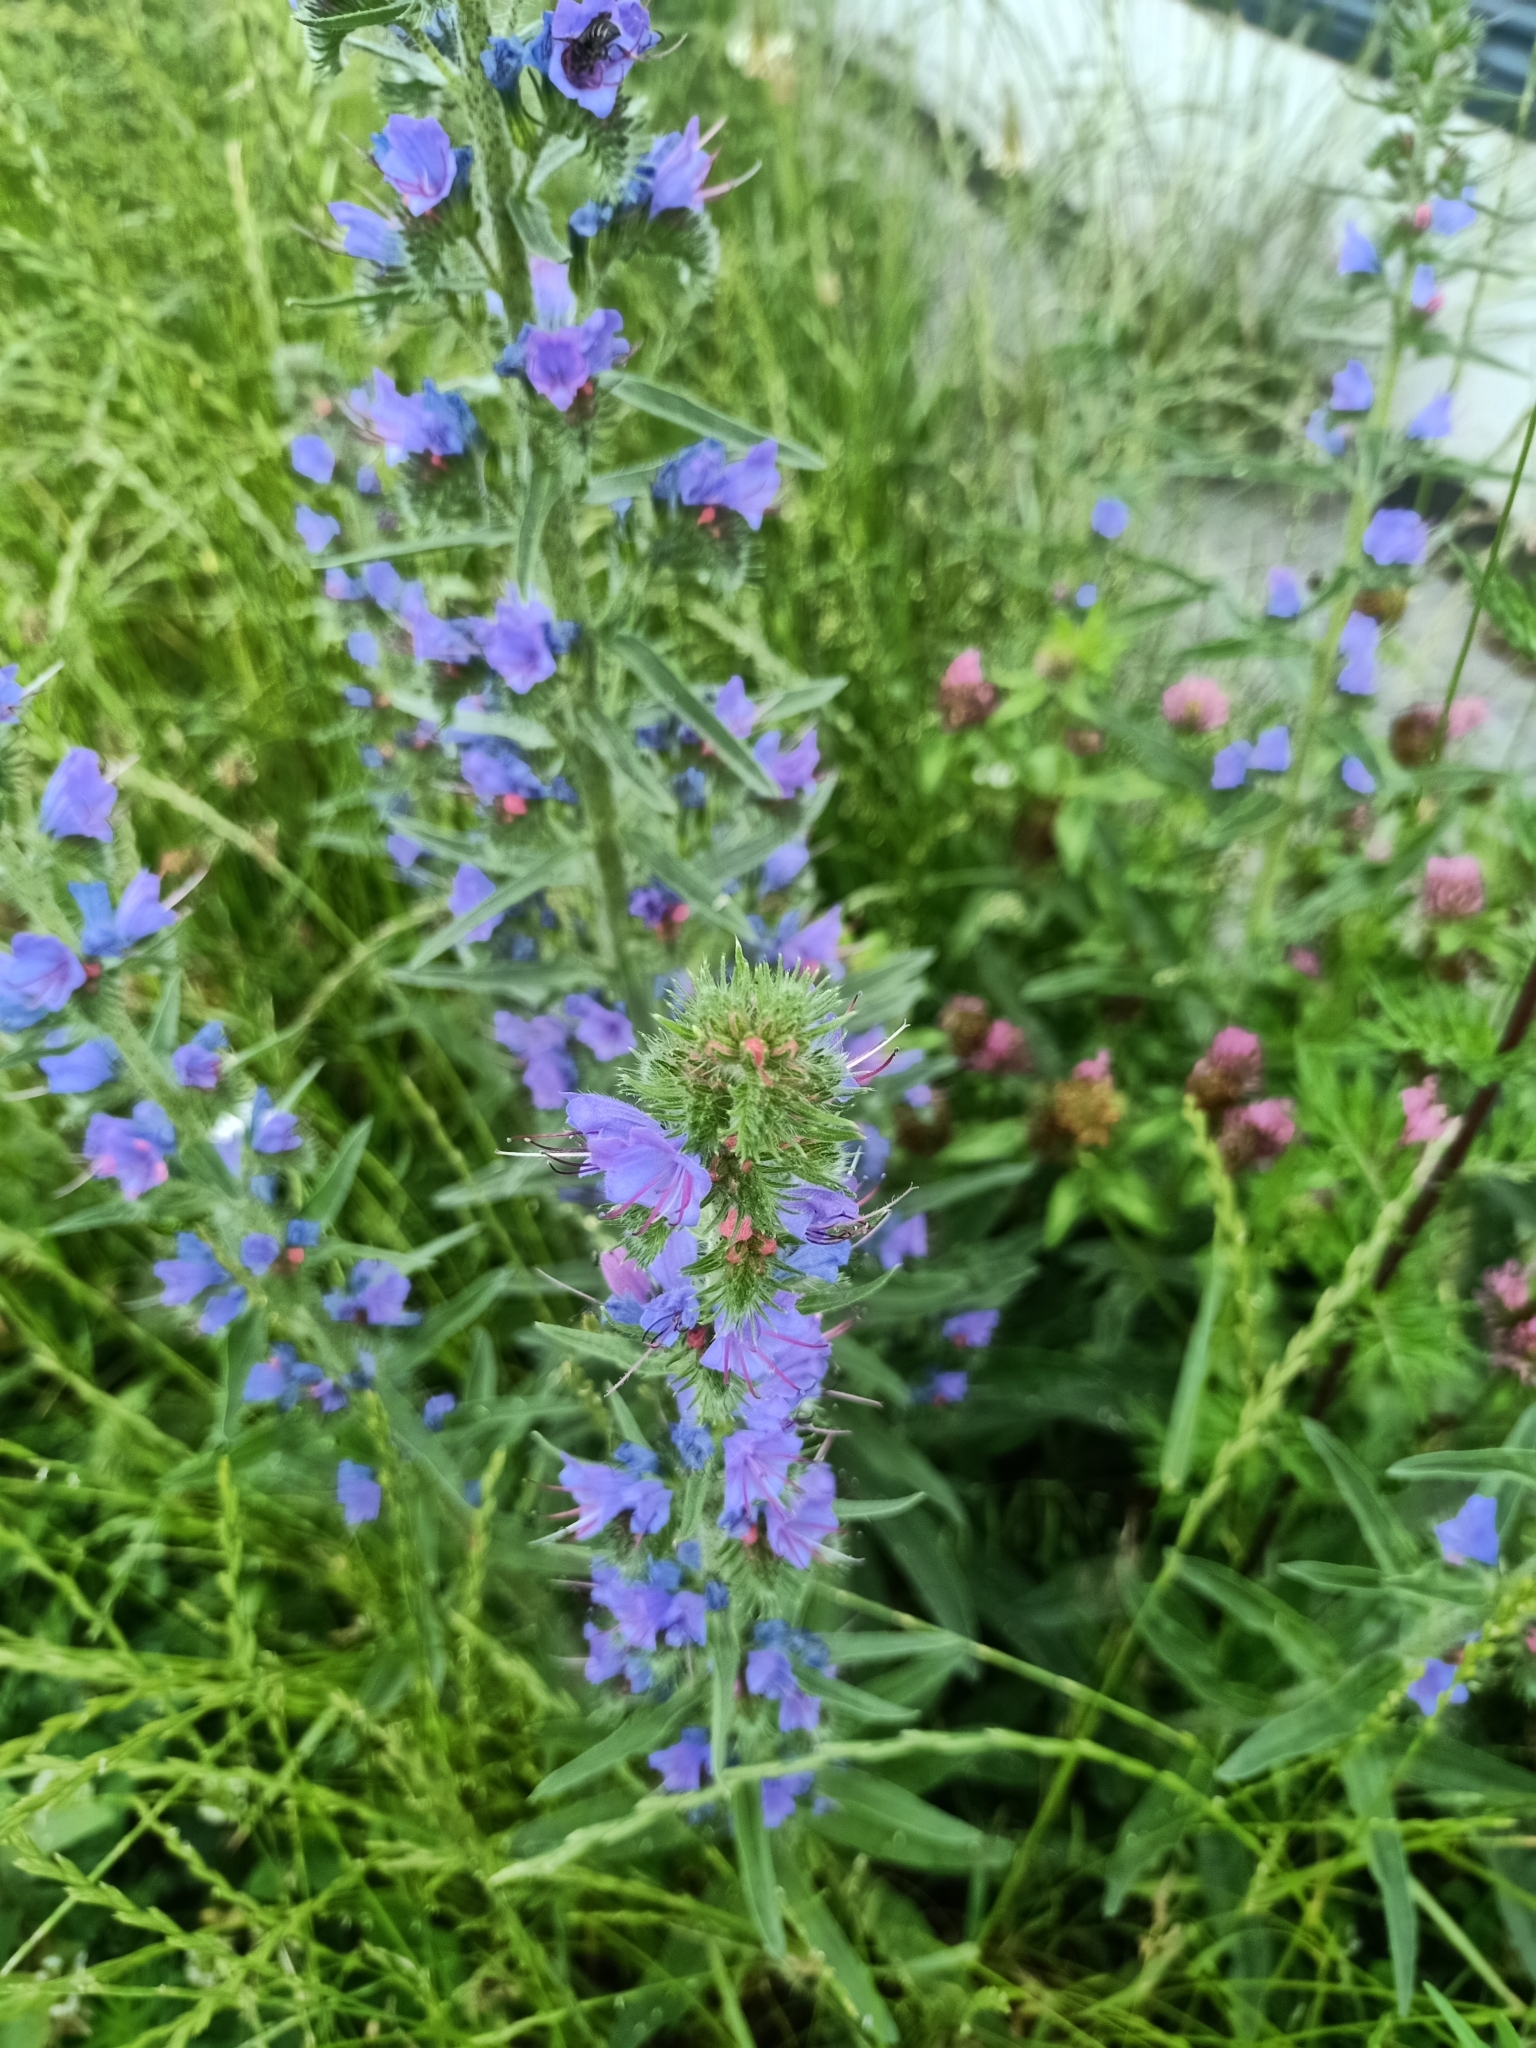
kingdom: Plantae
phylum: Tracheophyta
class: Magnoliopsida
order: Boraginales
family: Boraginaceae
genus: Echium
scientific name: Echium vulgare
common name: Common viper's bugloss
